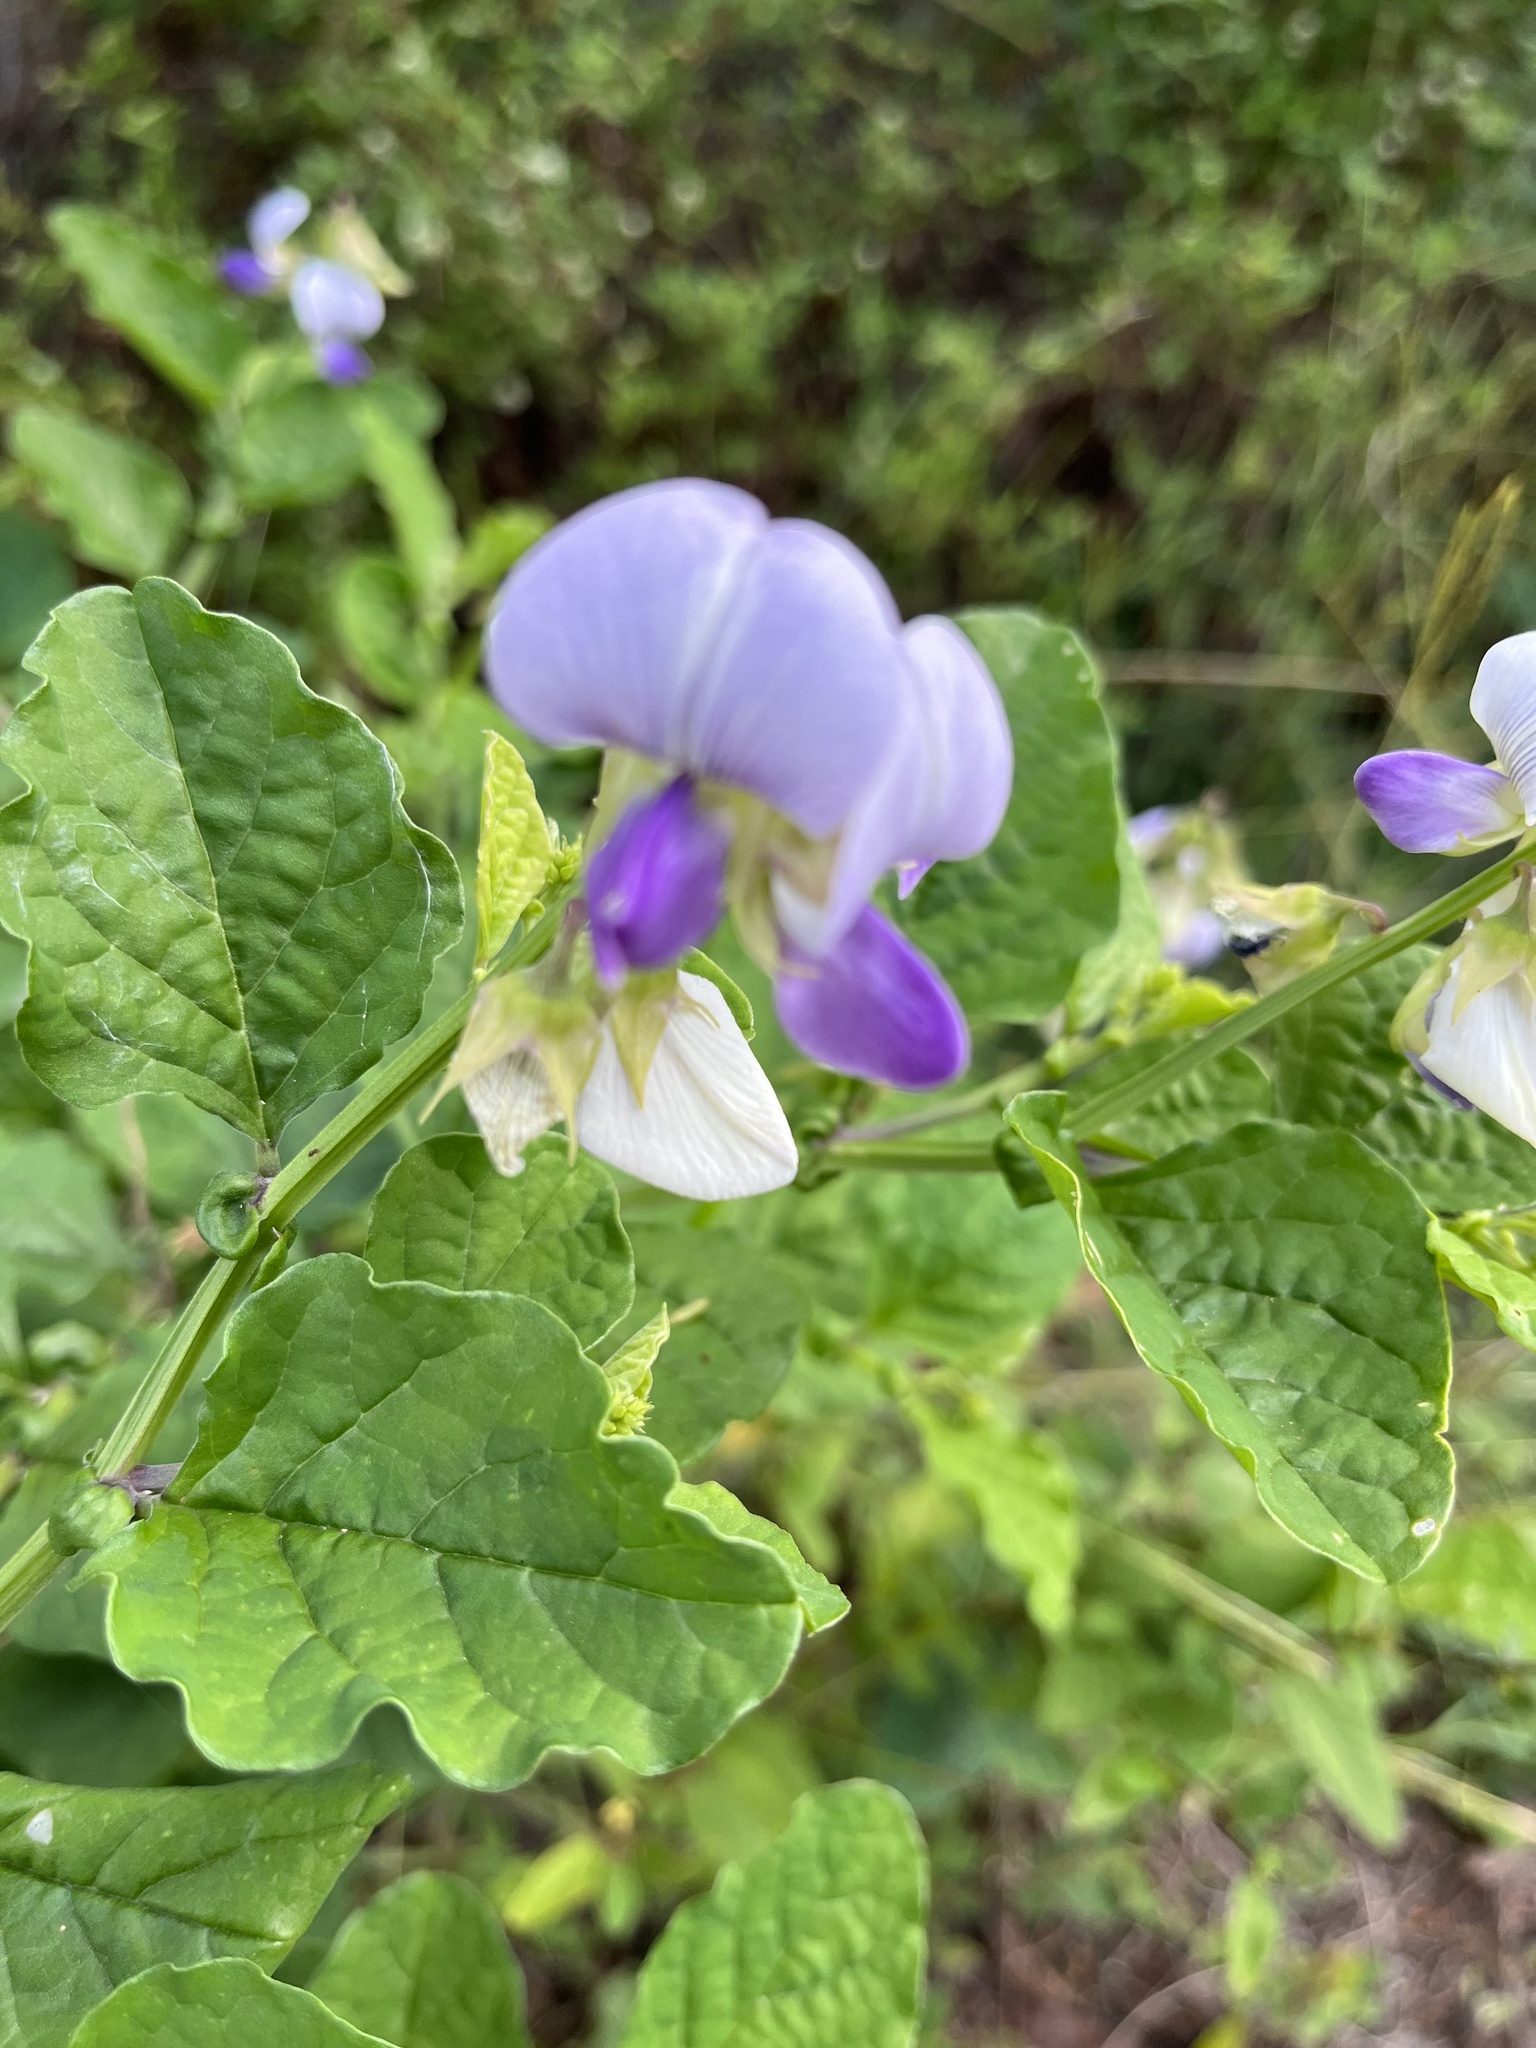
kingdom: Plantae
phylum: Tracheophyta
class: Magnoliopsida
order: Fabales
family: Fabaceae
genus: Crotalaria
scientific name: Crotalaria verrucosa
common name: Blue rattlesnake
